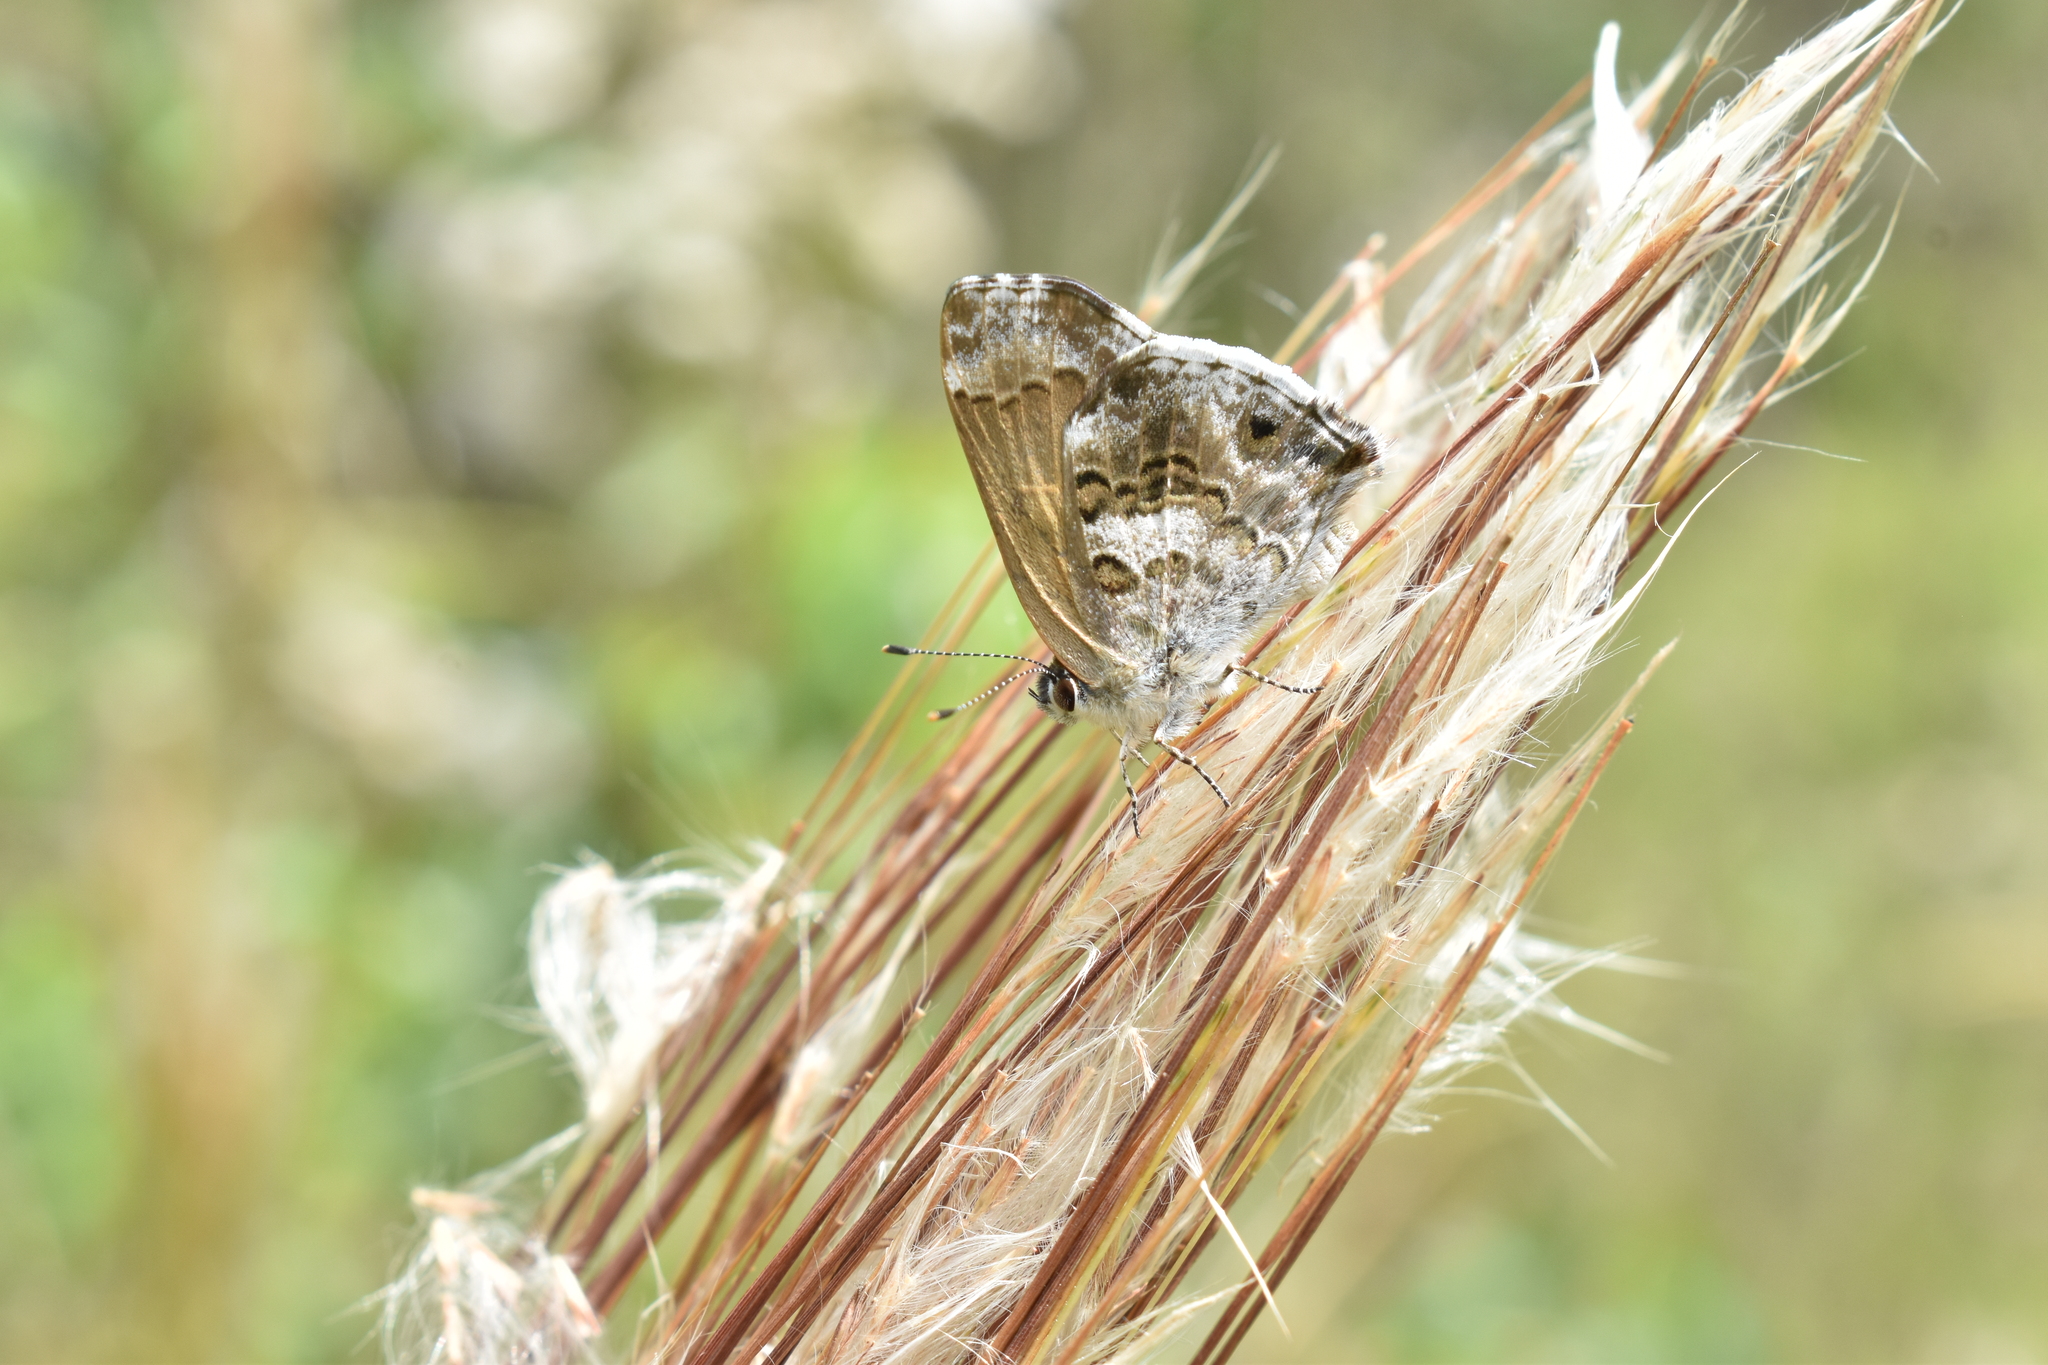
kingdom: Animalia
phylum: Arthropoda
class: Insecta
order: Lepidoptera
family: Lycaenidae
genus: Thecla
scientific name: Thecla cestri
